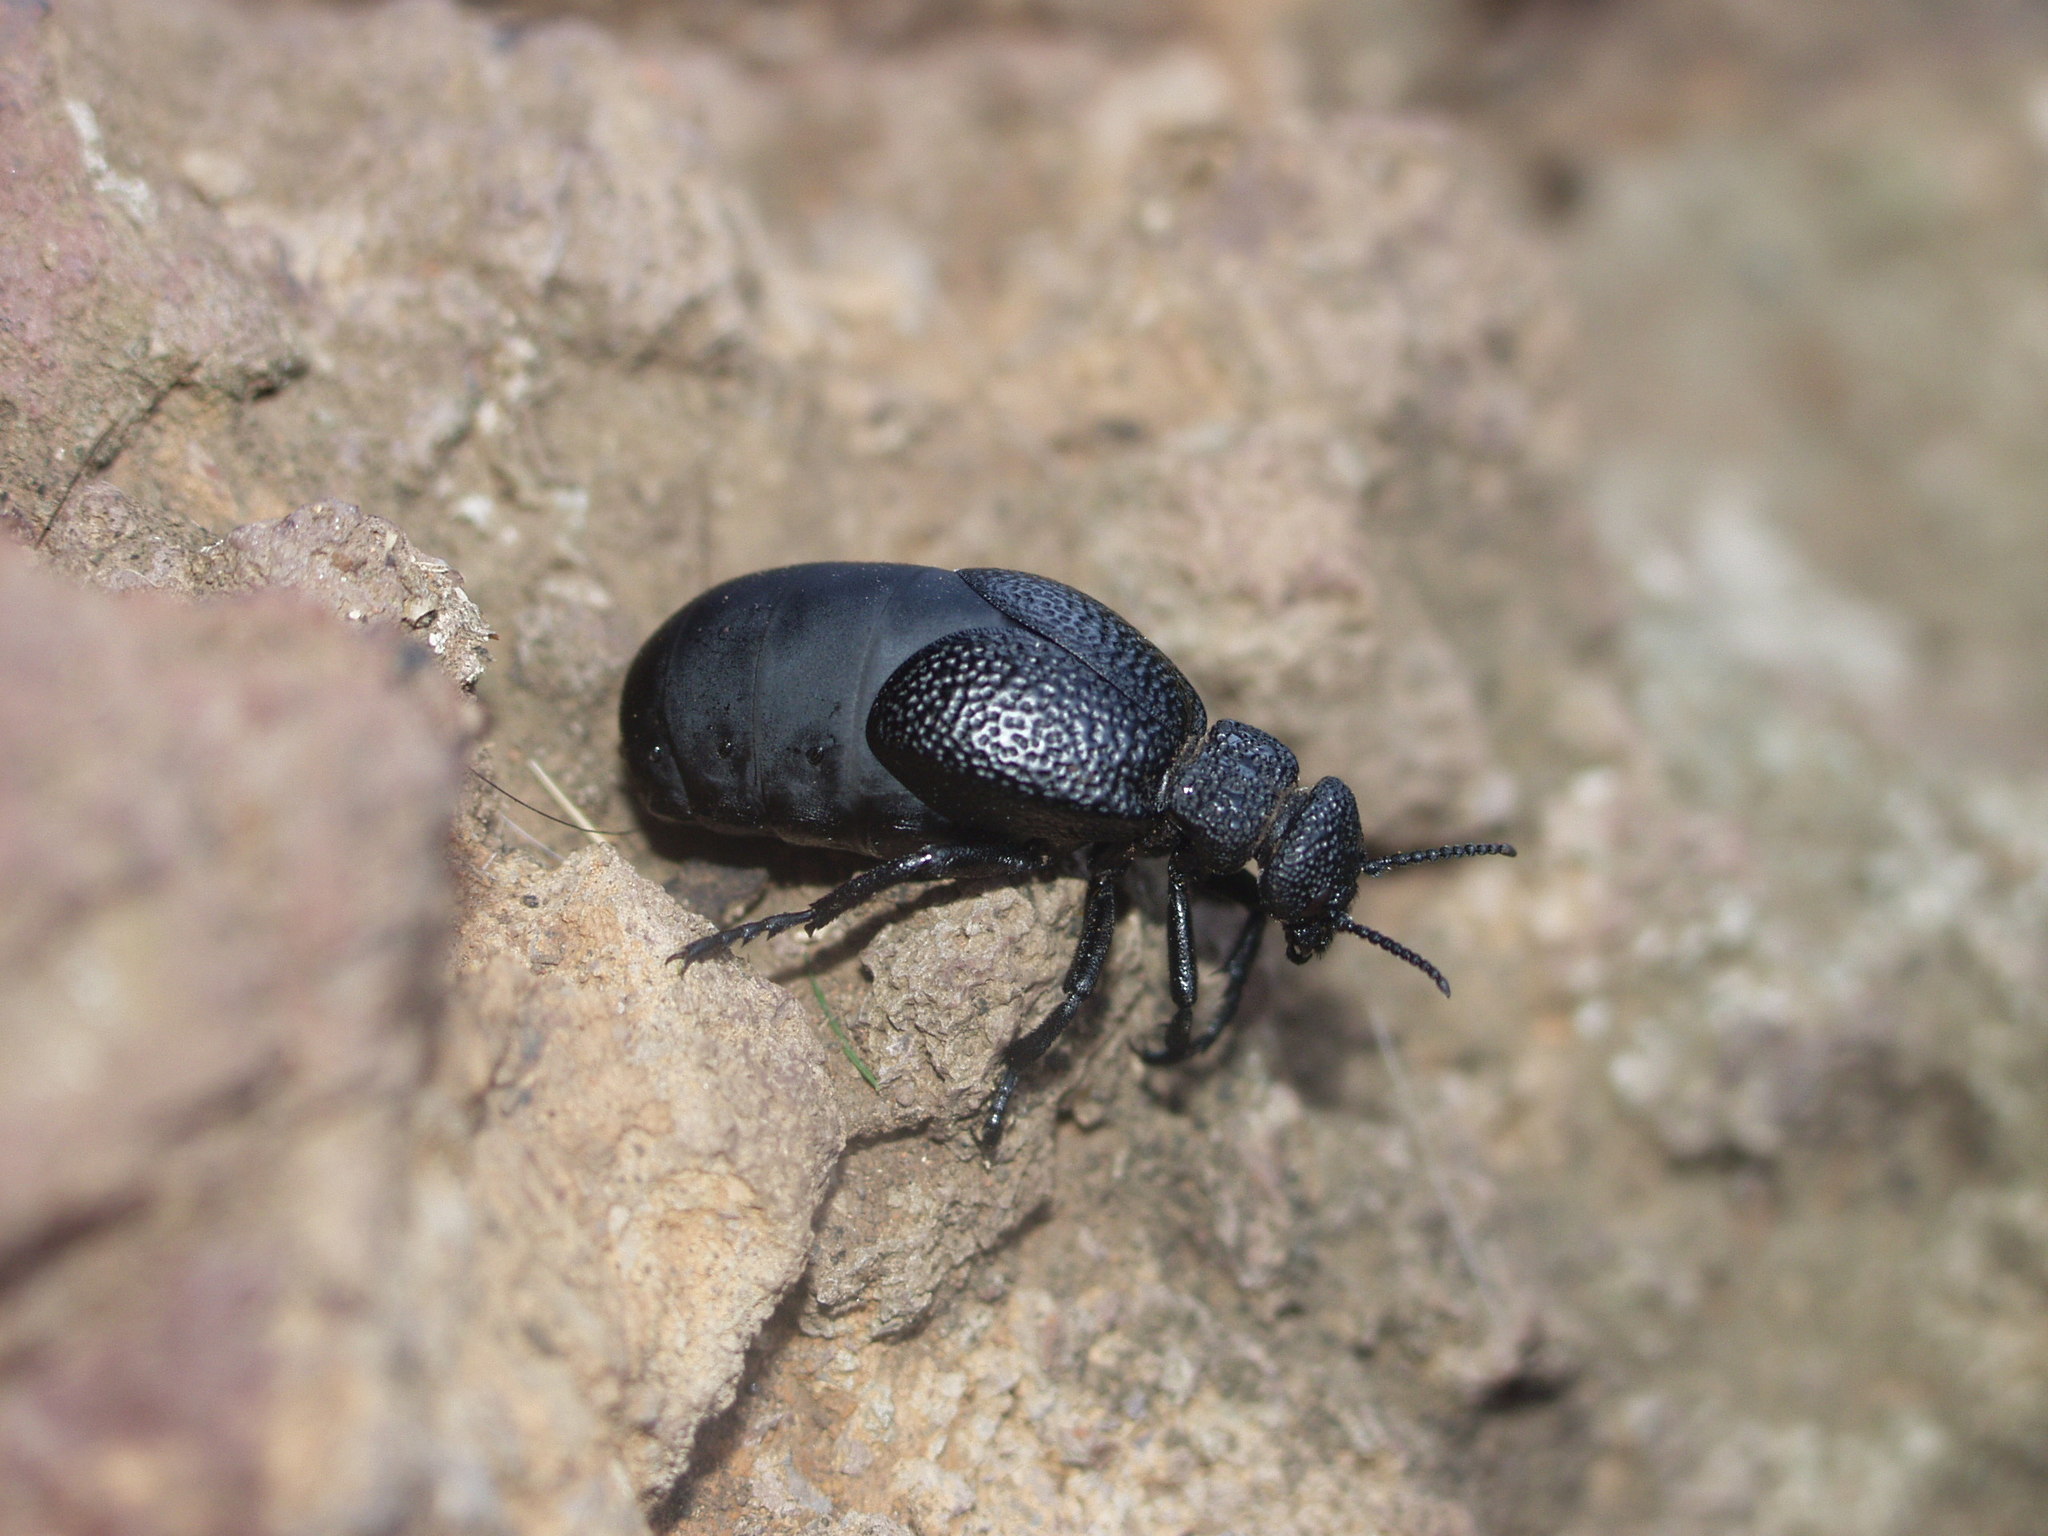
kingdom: Animalia
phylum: Arthropoda
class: Insecta
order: Coleoptera
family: Meloidae
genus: Meloe
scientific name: Meloe tuccius
